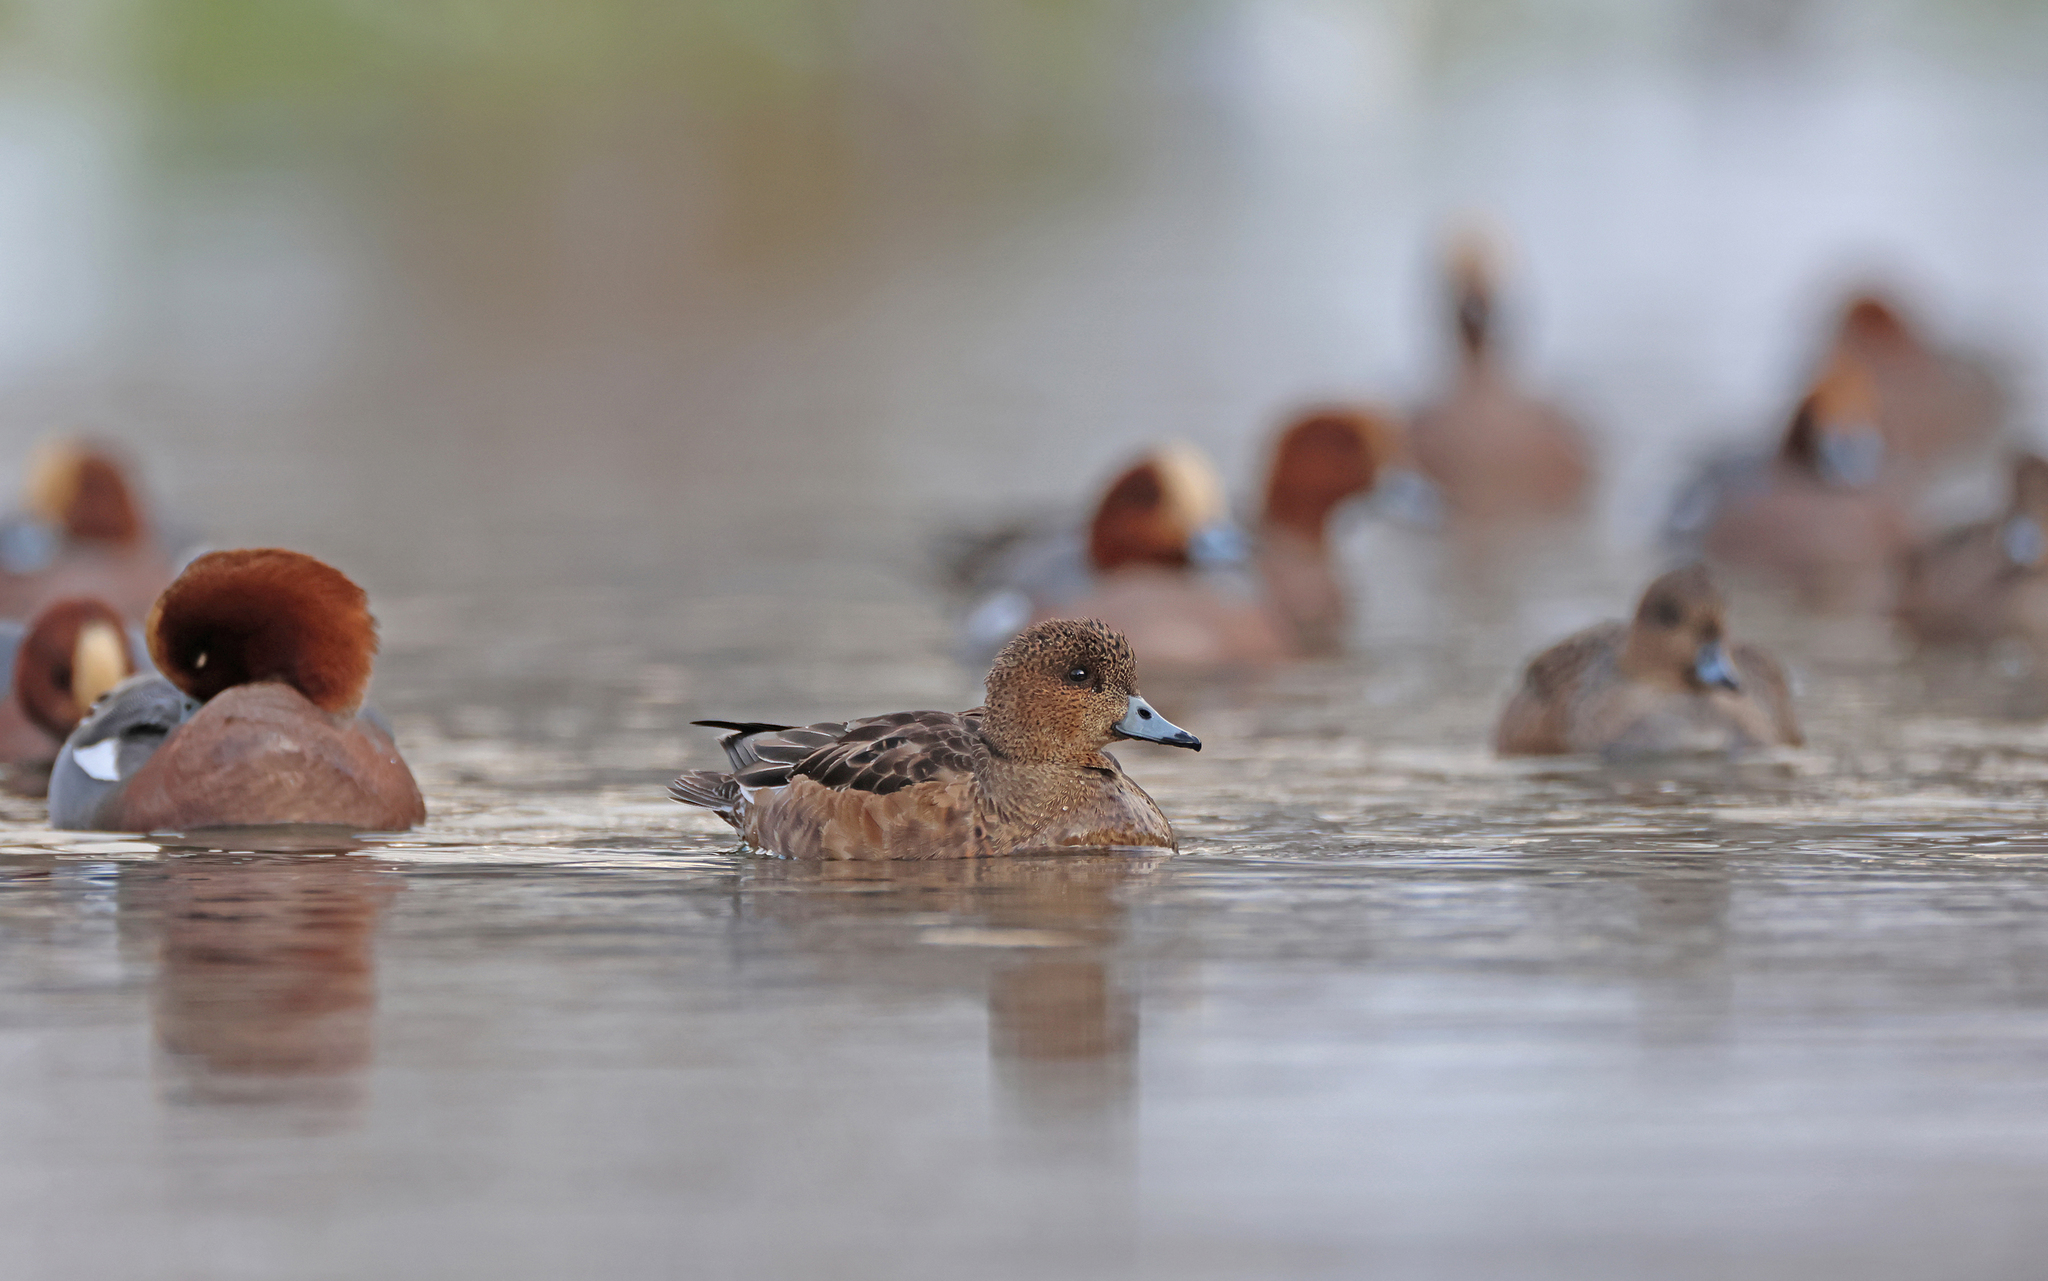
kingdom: Animalia
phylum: Chordata
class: Aves
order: Anseriformes
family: Anatidae
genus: Mareca
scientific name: Mareca penelope
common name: Eurasian wigeon
